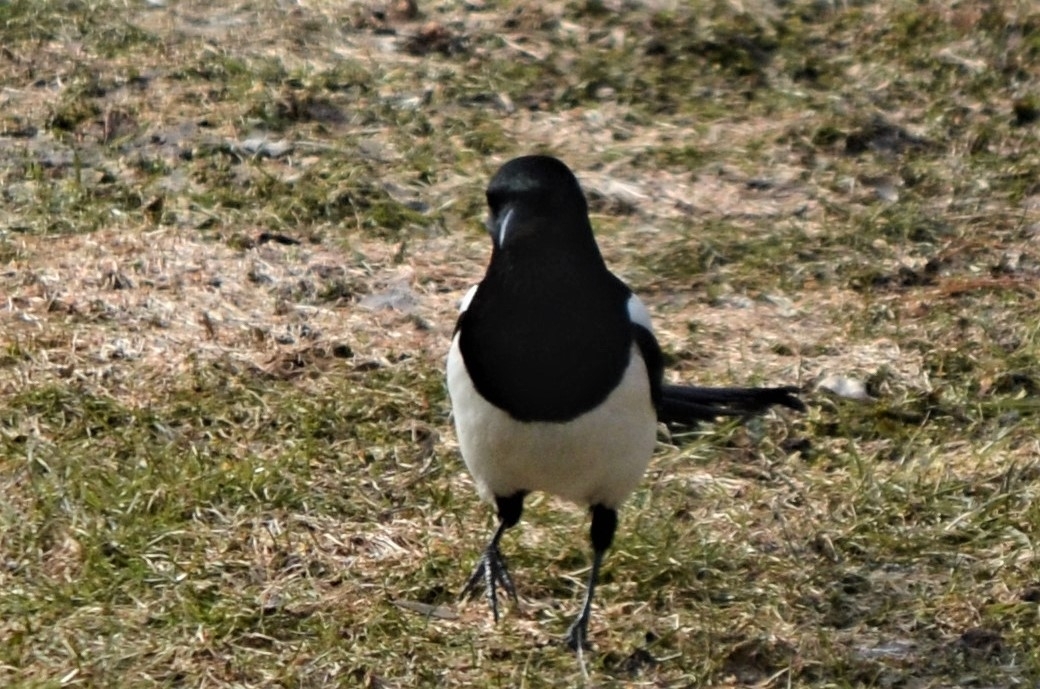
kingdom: Animalia
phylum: Chordata
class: Aves
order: Passeriformes
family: Corvidae
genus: Pica
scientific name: Pica pica
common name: Eurasian magpie
